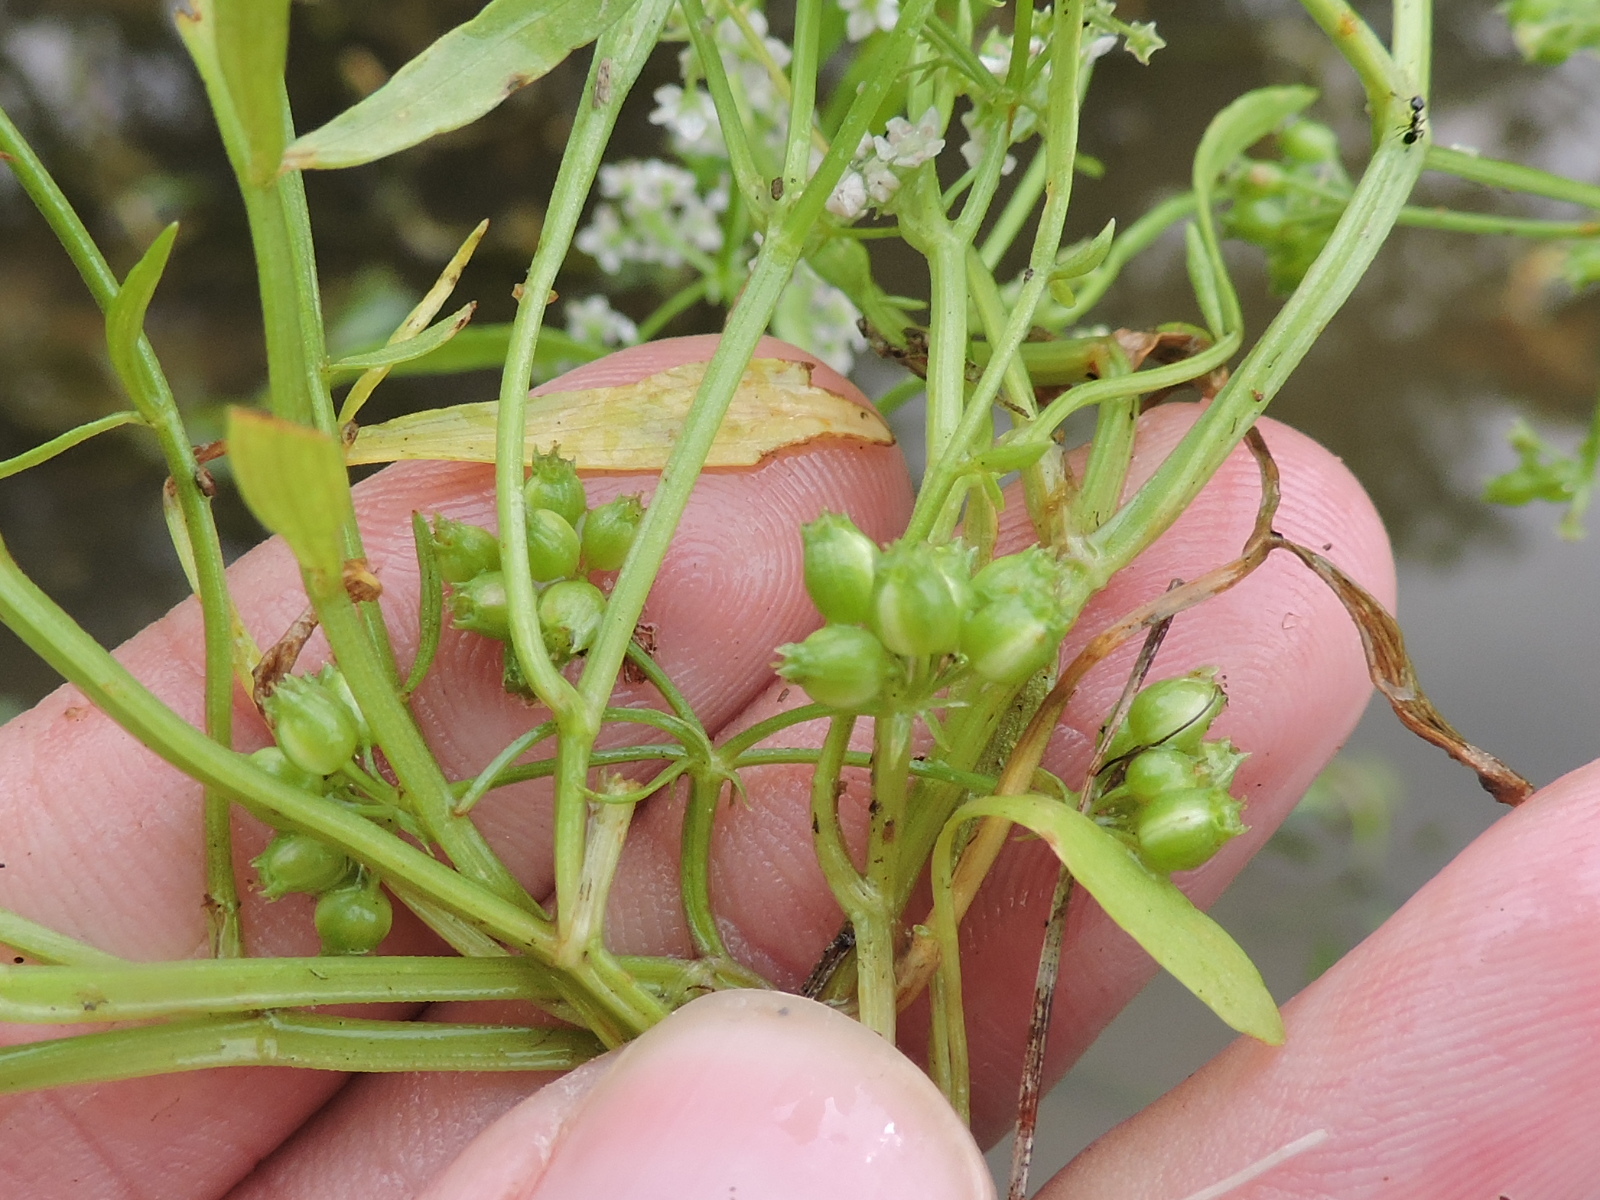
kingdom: Plantae
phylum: Tracheophyta
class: Magnoliopsida
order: Apiales
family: Apiaceae
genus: Limnosciadium
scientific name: Limnosciadium pinnatum
